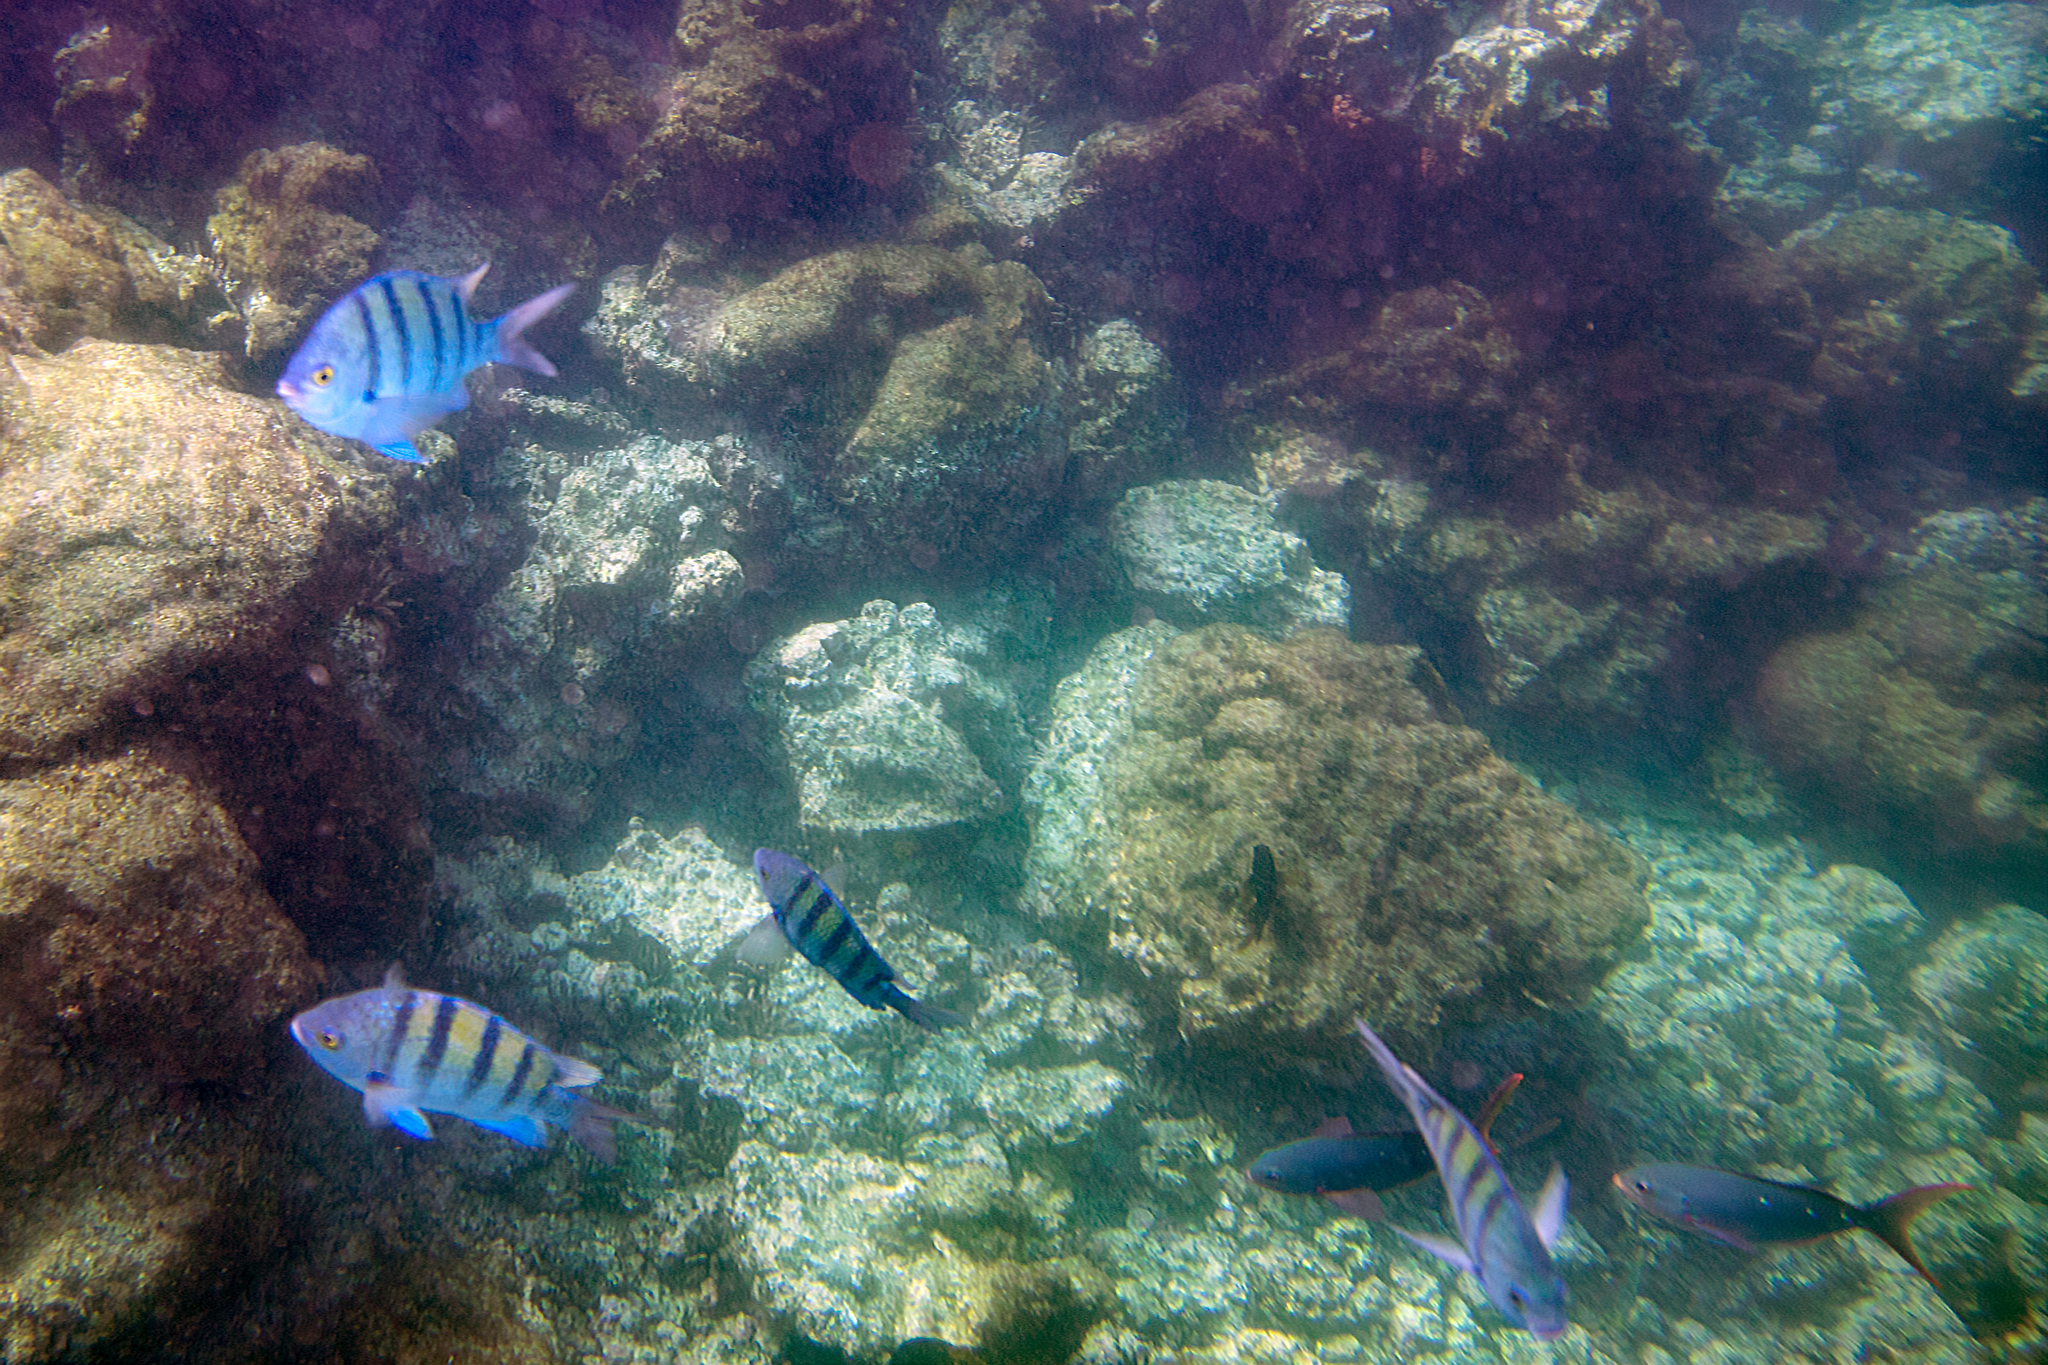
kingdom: Animalia
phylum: Chordata
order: Perciformes
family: Serranidae
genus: Paranthias
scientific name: Paranthias colonus
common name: Pacific creole-fish
